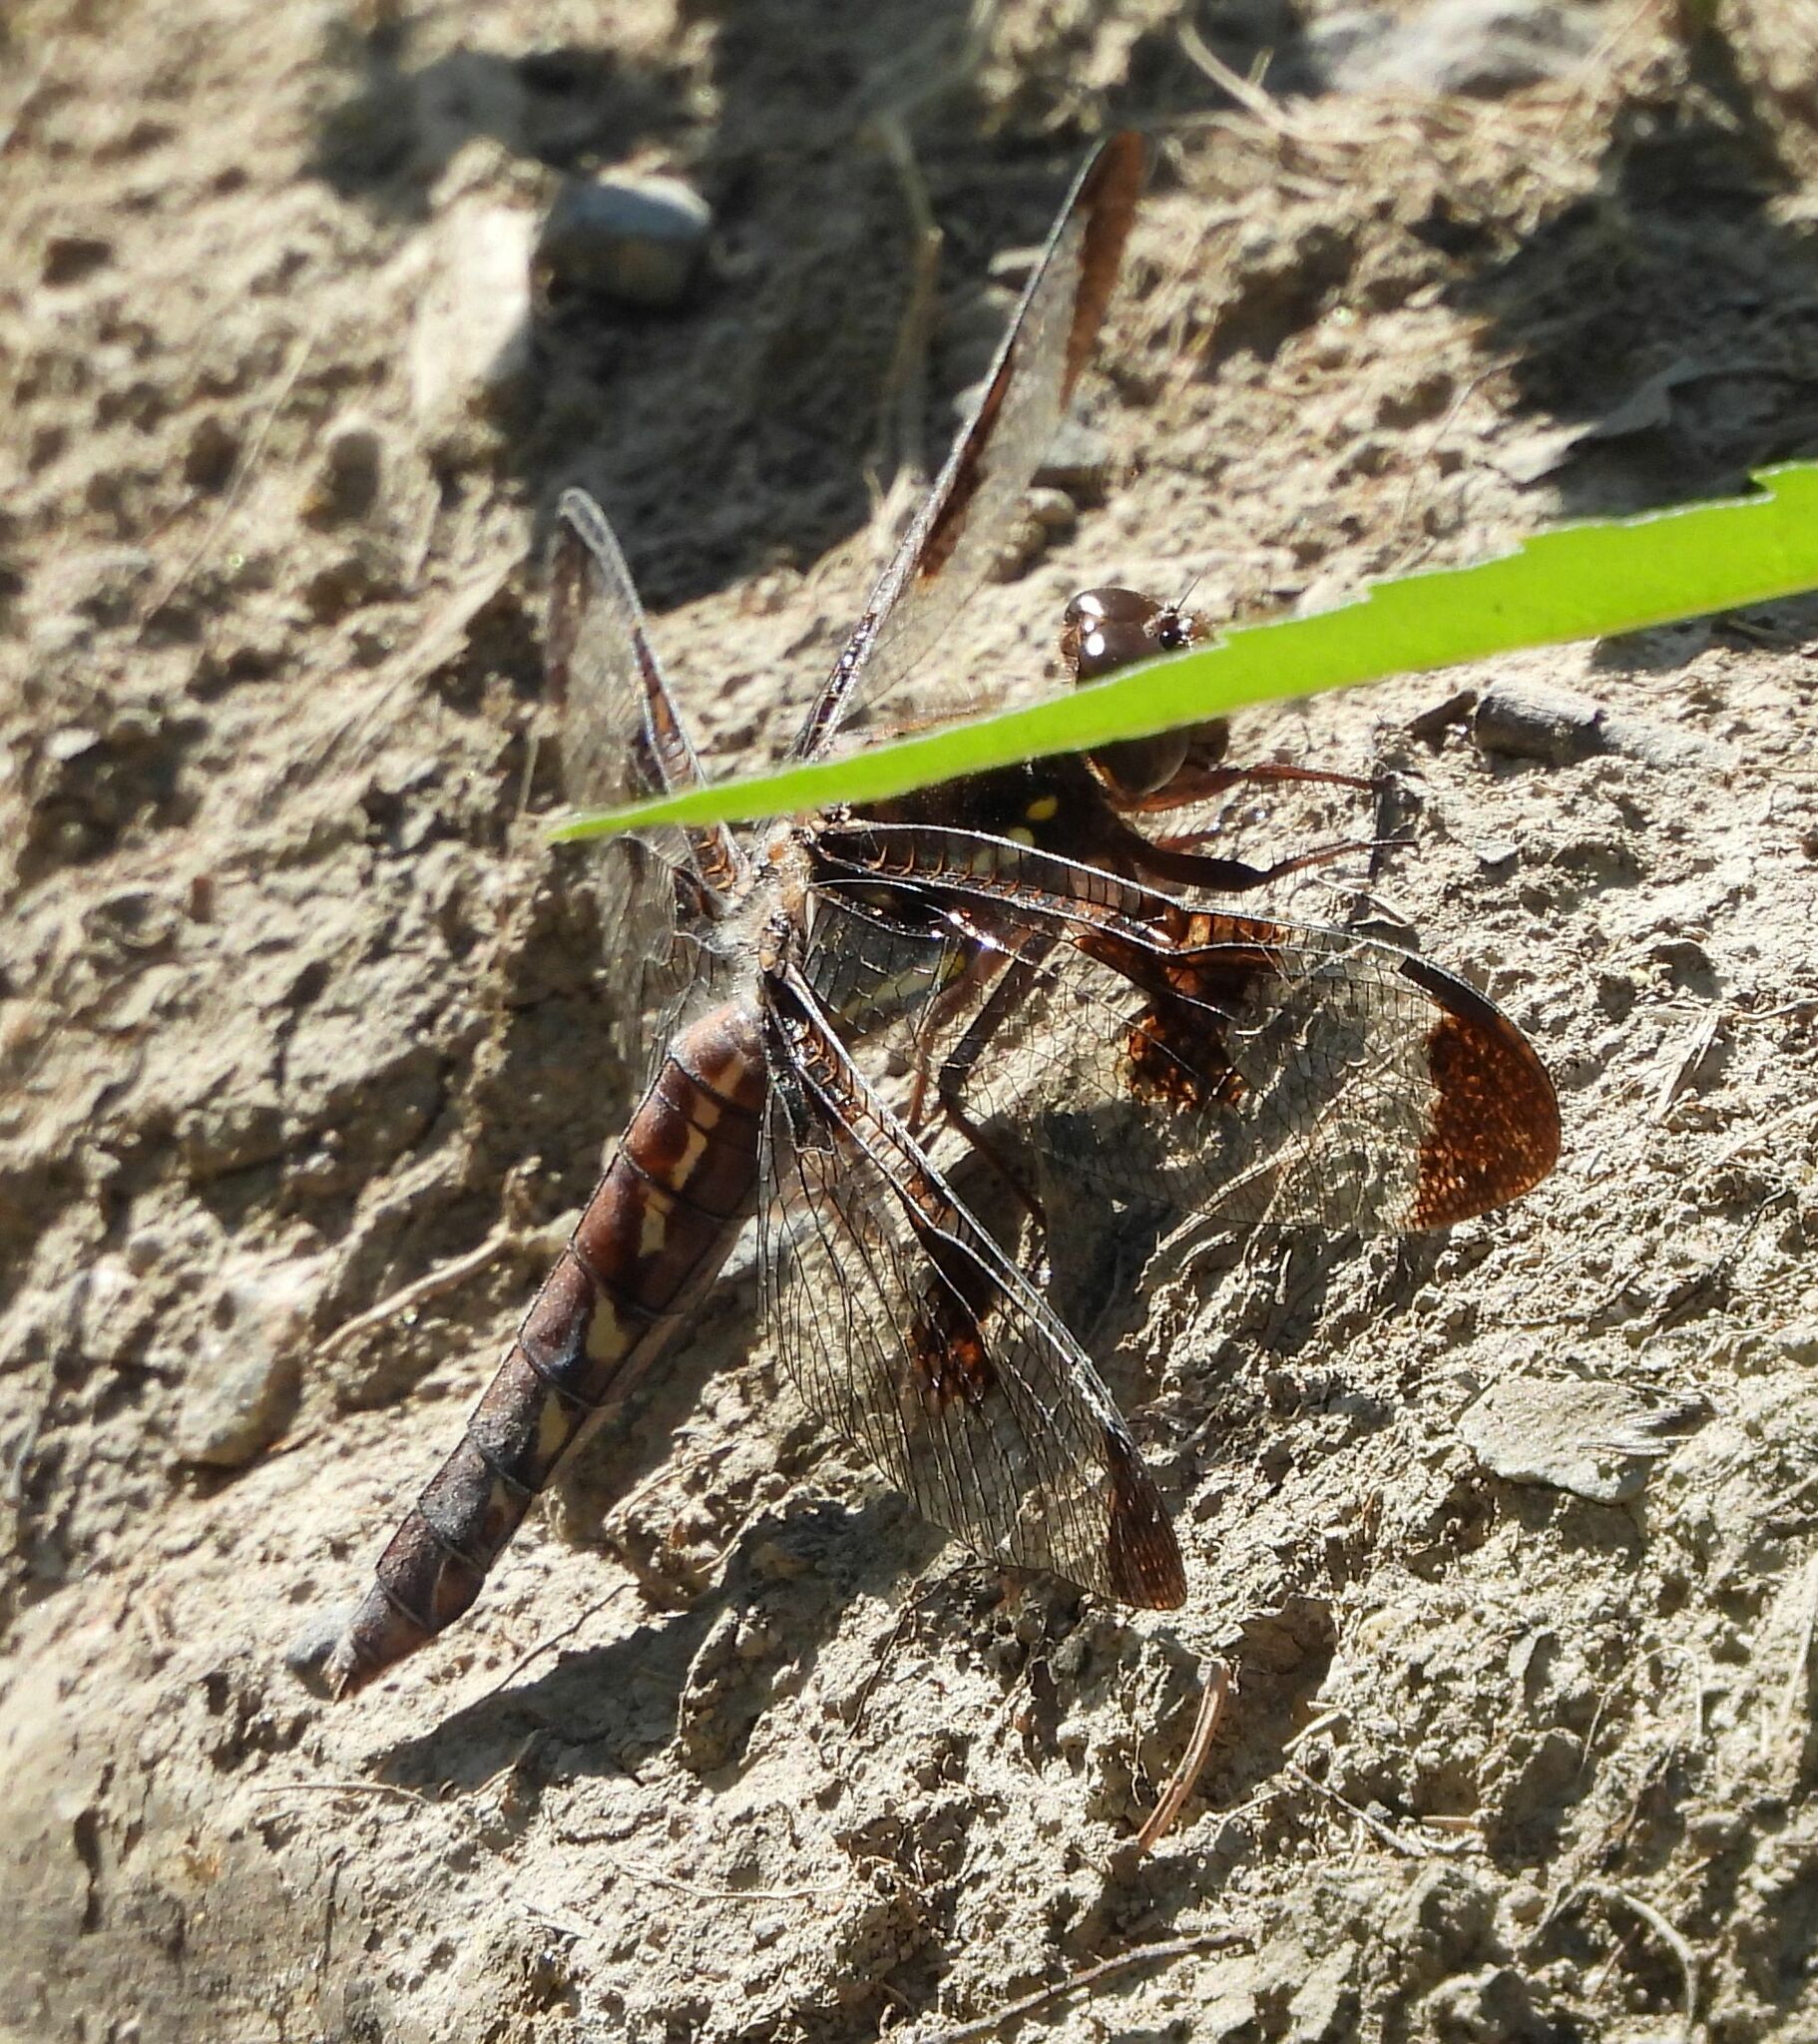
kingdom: Animalia
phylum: Arthropoda
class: Insecta
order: Odonata
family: Libellulidae
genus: Plathemis
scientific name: Plathemis lydia
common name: Common whitetail
